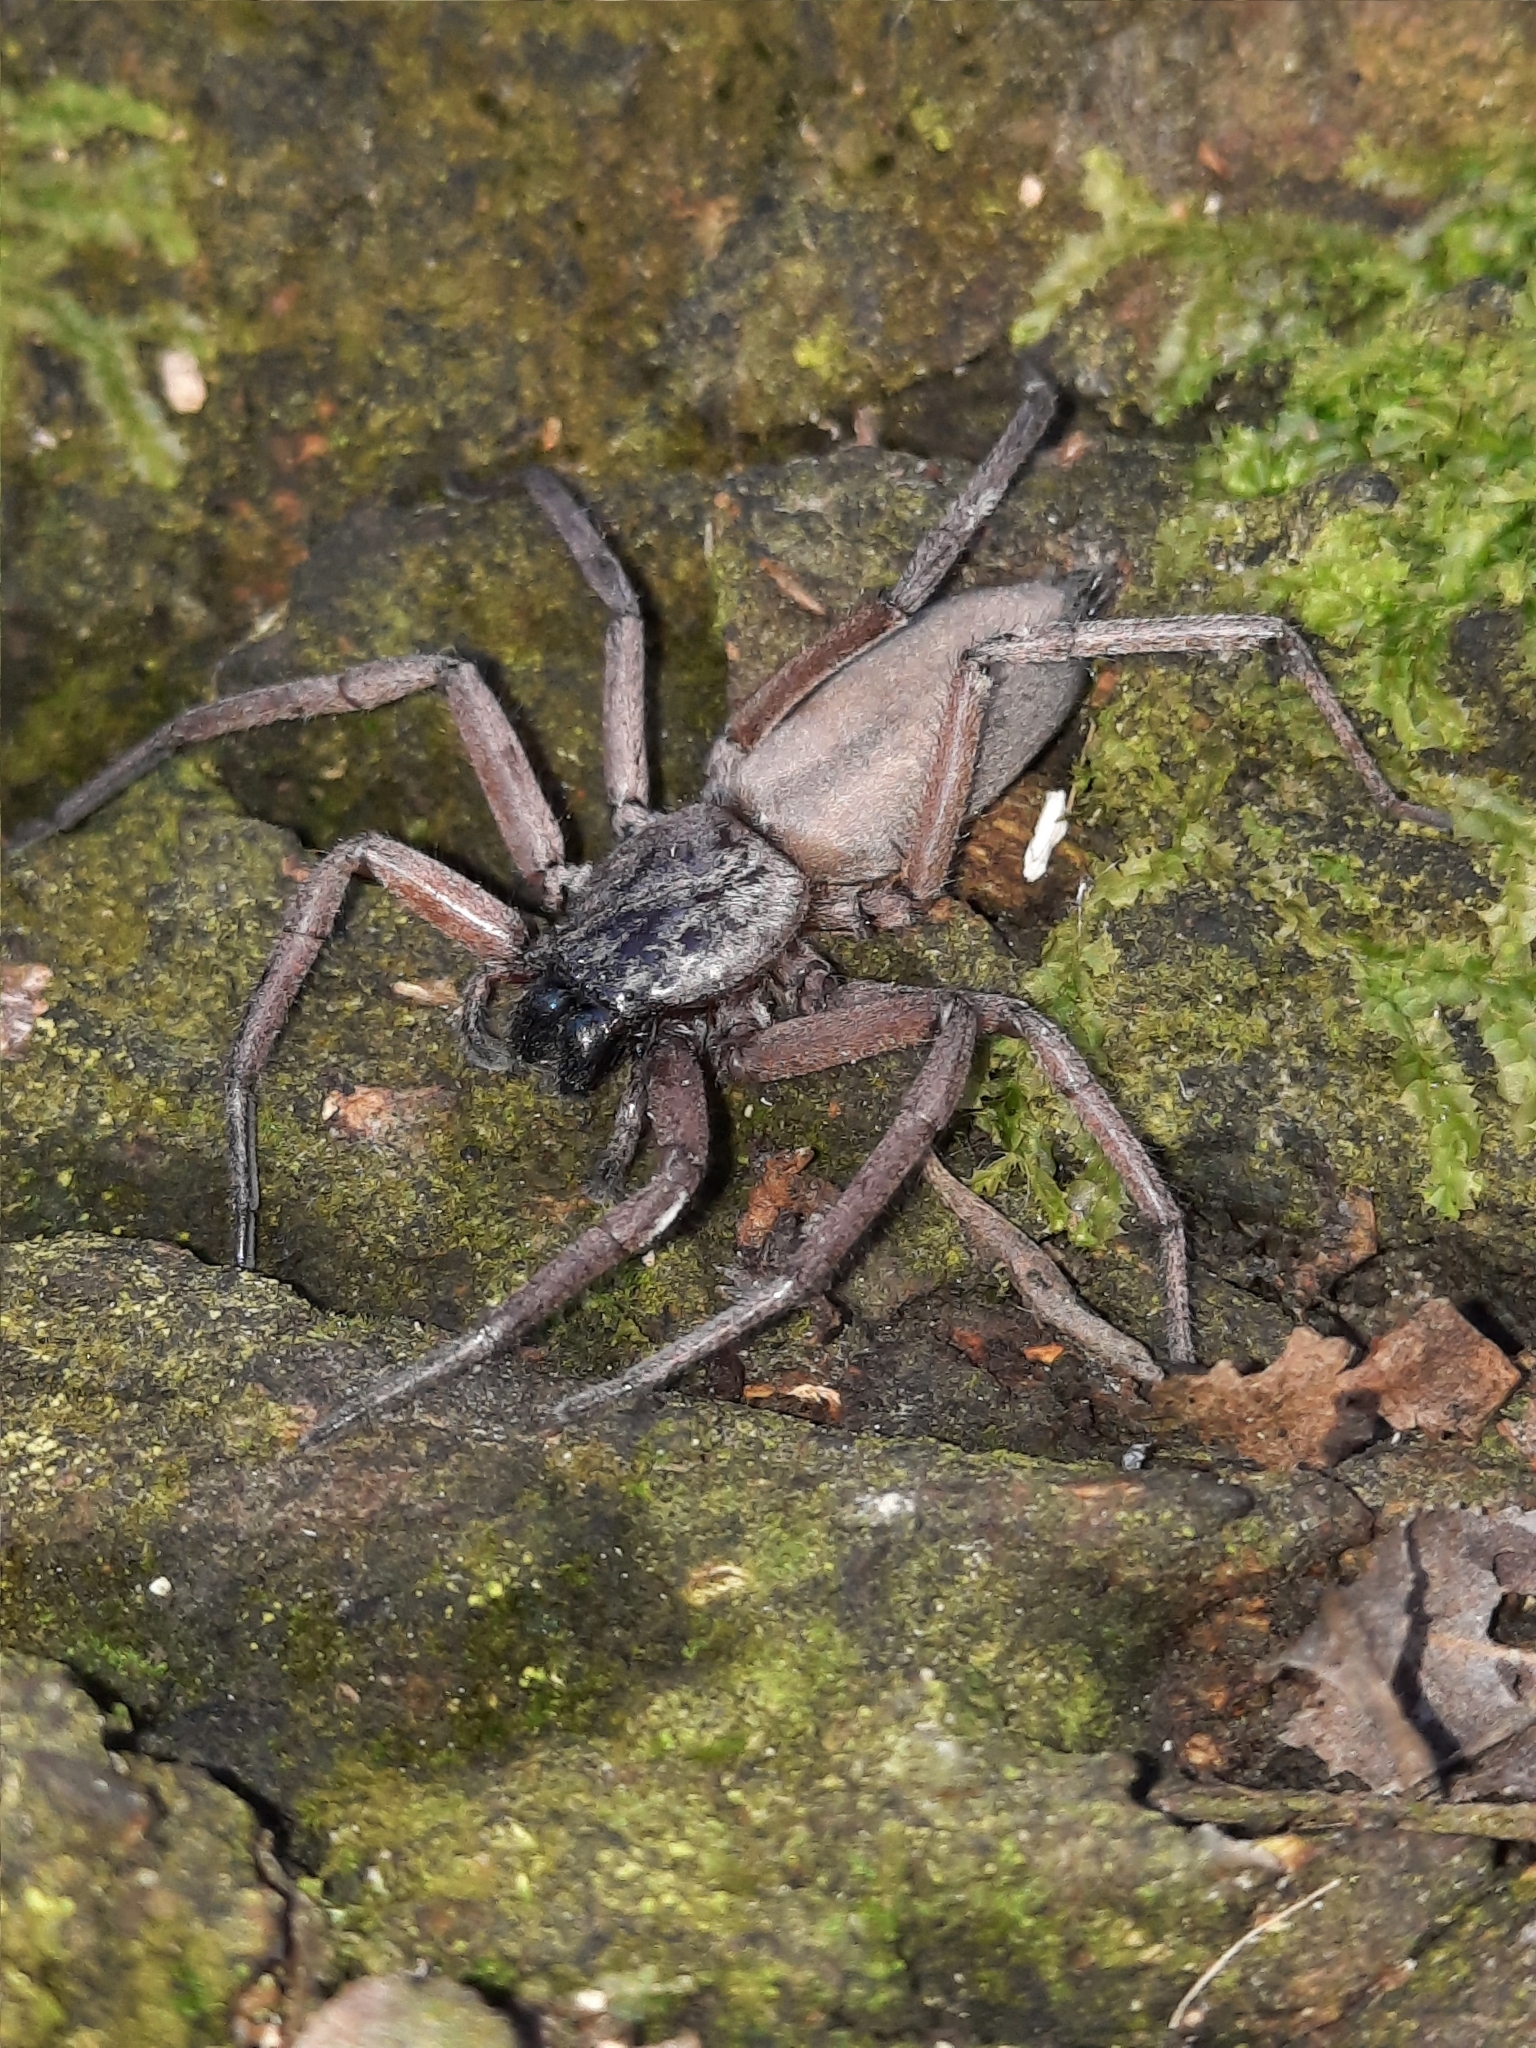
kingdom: Animalia
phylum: Arthropoda
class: Arachnida
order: Araneae
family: Trochanteriidae
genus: Hemicloea
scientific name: Hemicloea rogenhoferi
